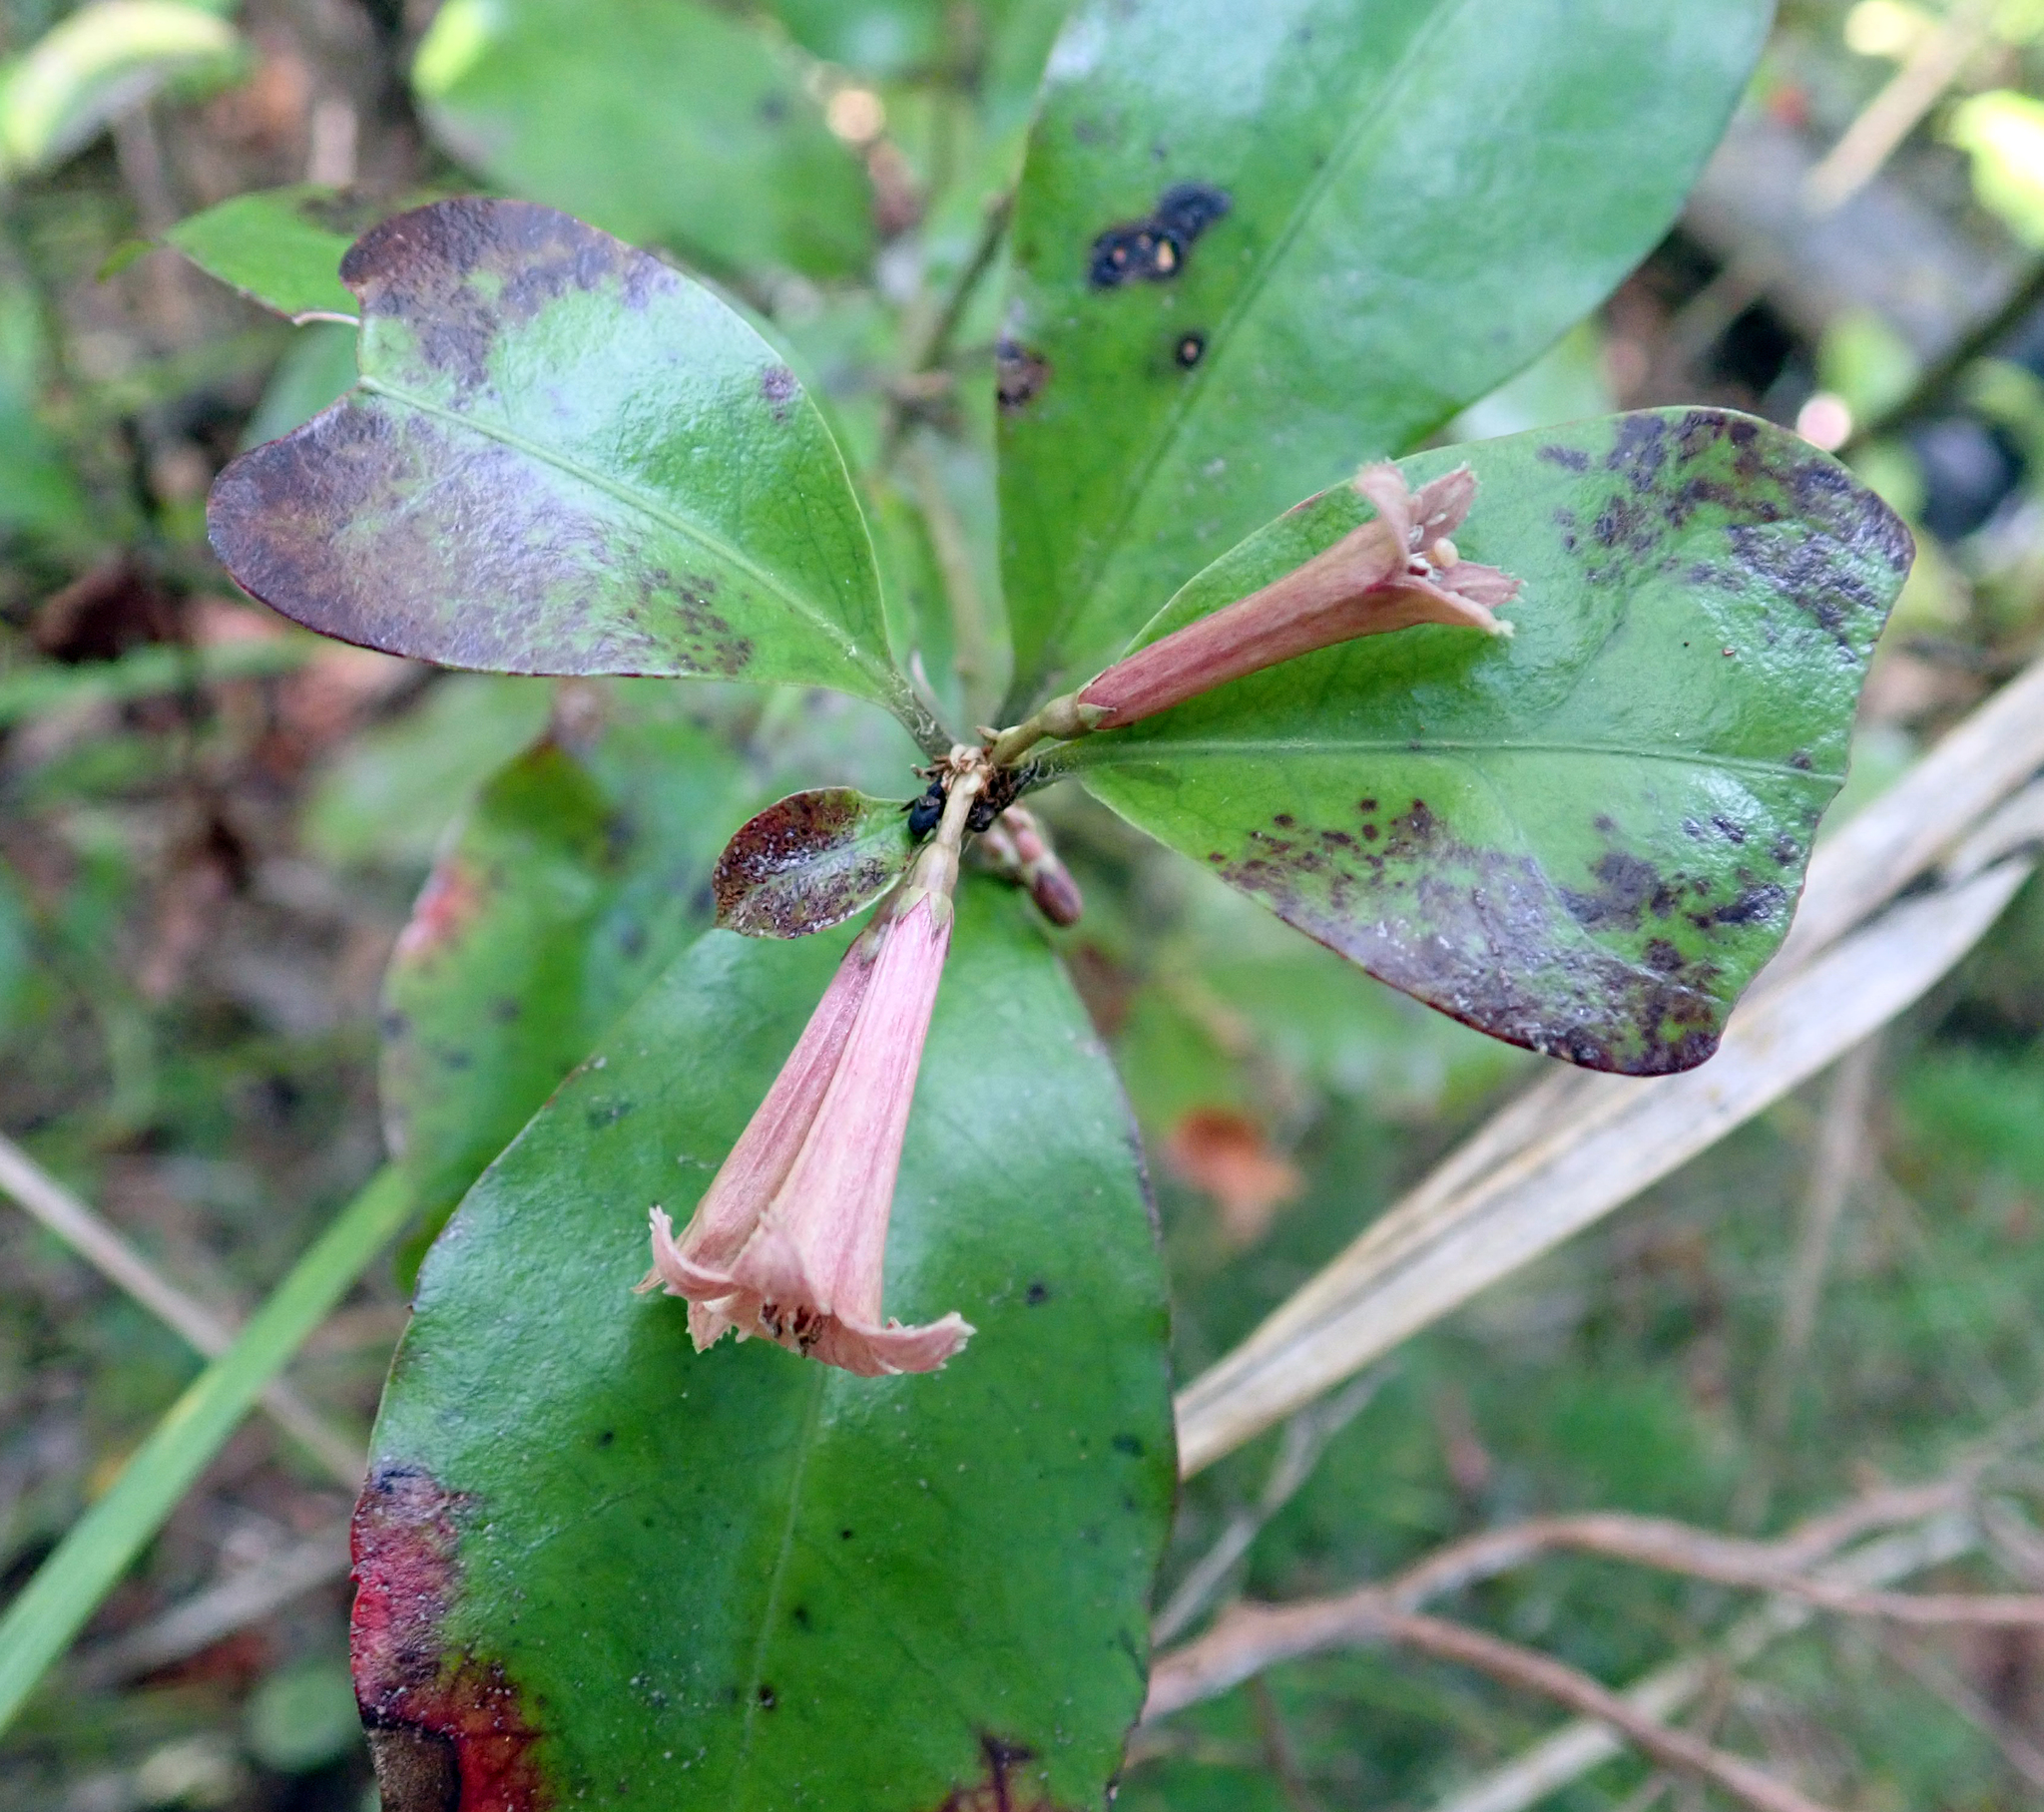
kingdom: Plantae
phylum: Tracheophyta
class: Magnoliopsida
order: Asterales
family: Alseuosmiaceae
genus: Alseuosmia
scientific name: Alseuosmia macrophylla
